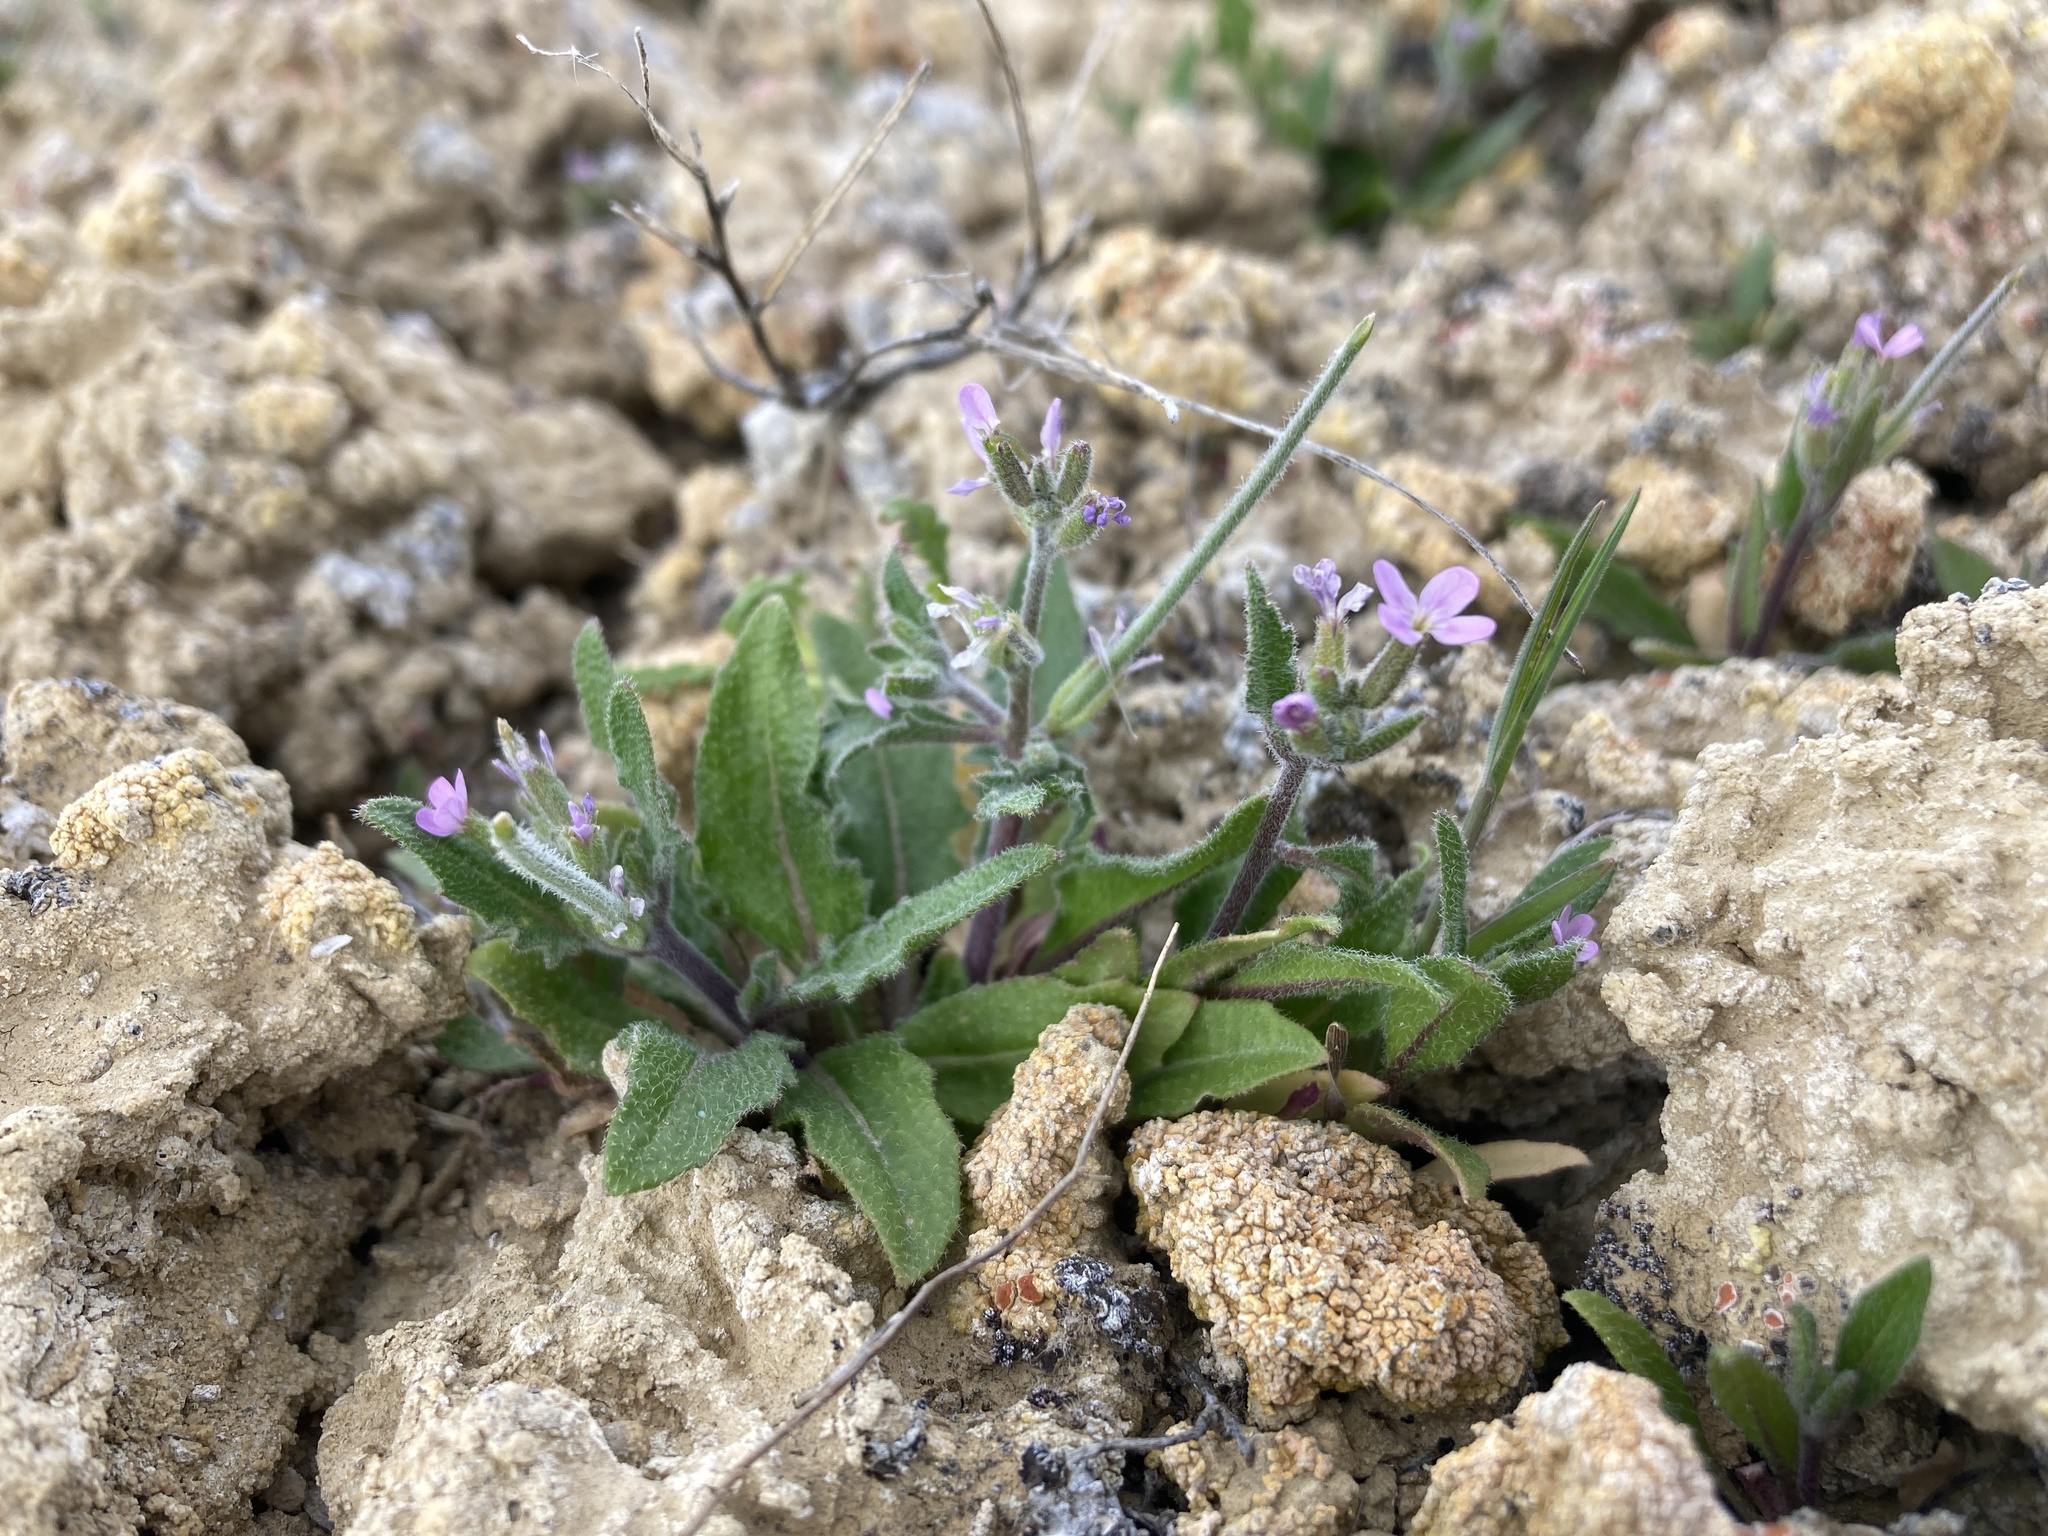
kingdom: Plantae
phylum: Tracheophyta
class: Magnoliopsida
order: Brassicales
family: Brassicaceae
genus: Strigosella
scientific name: Strigosella africana
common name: African mustard
